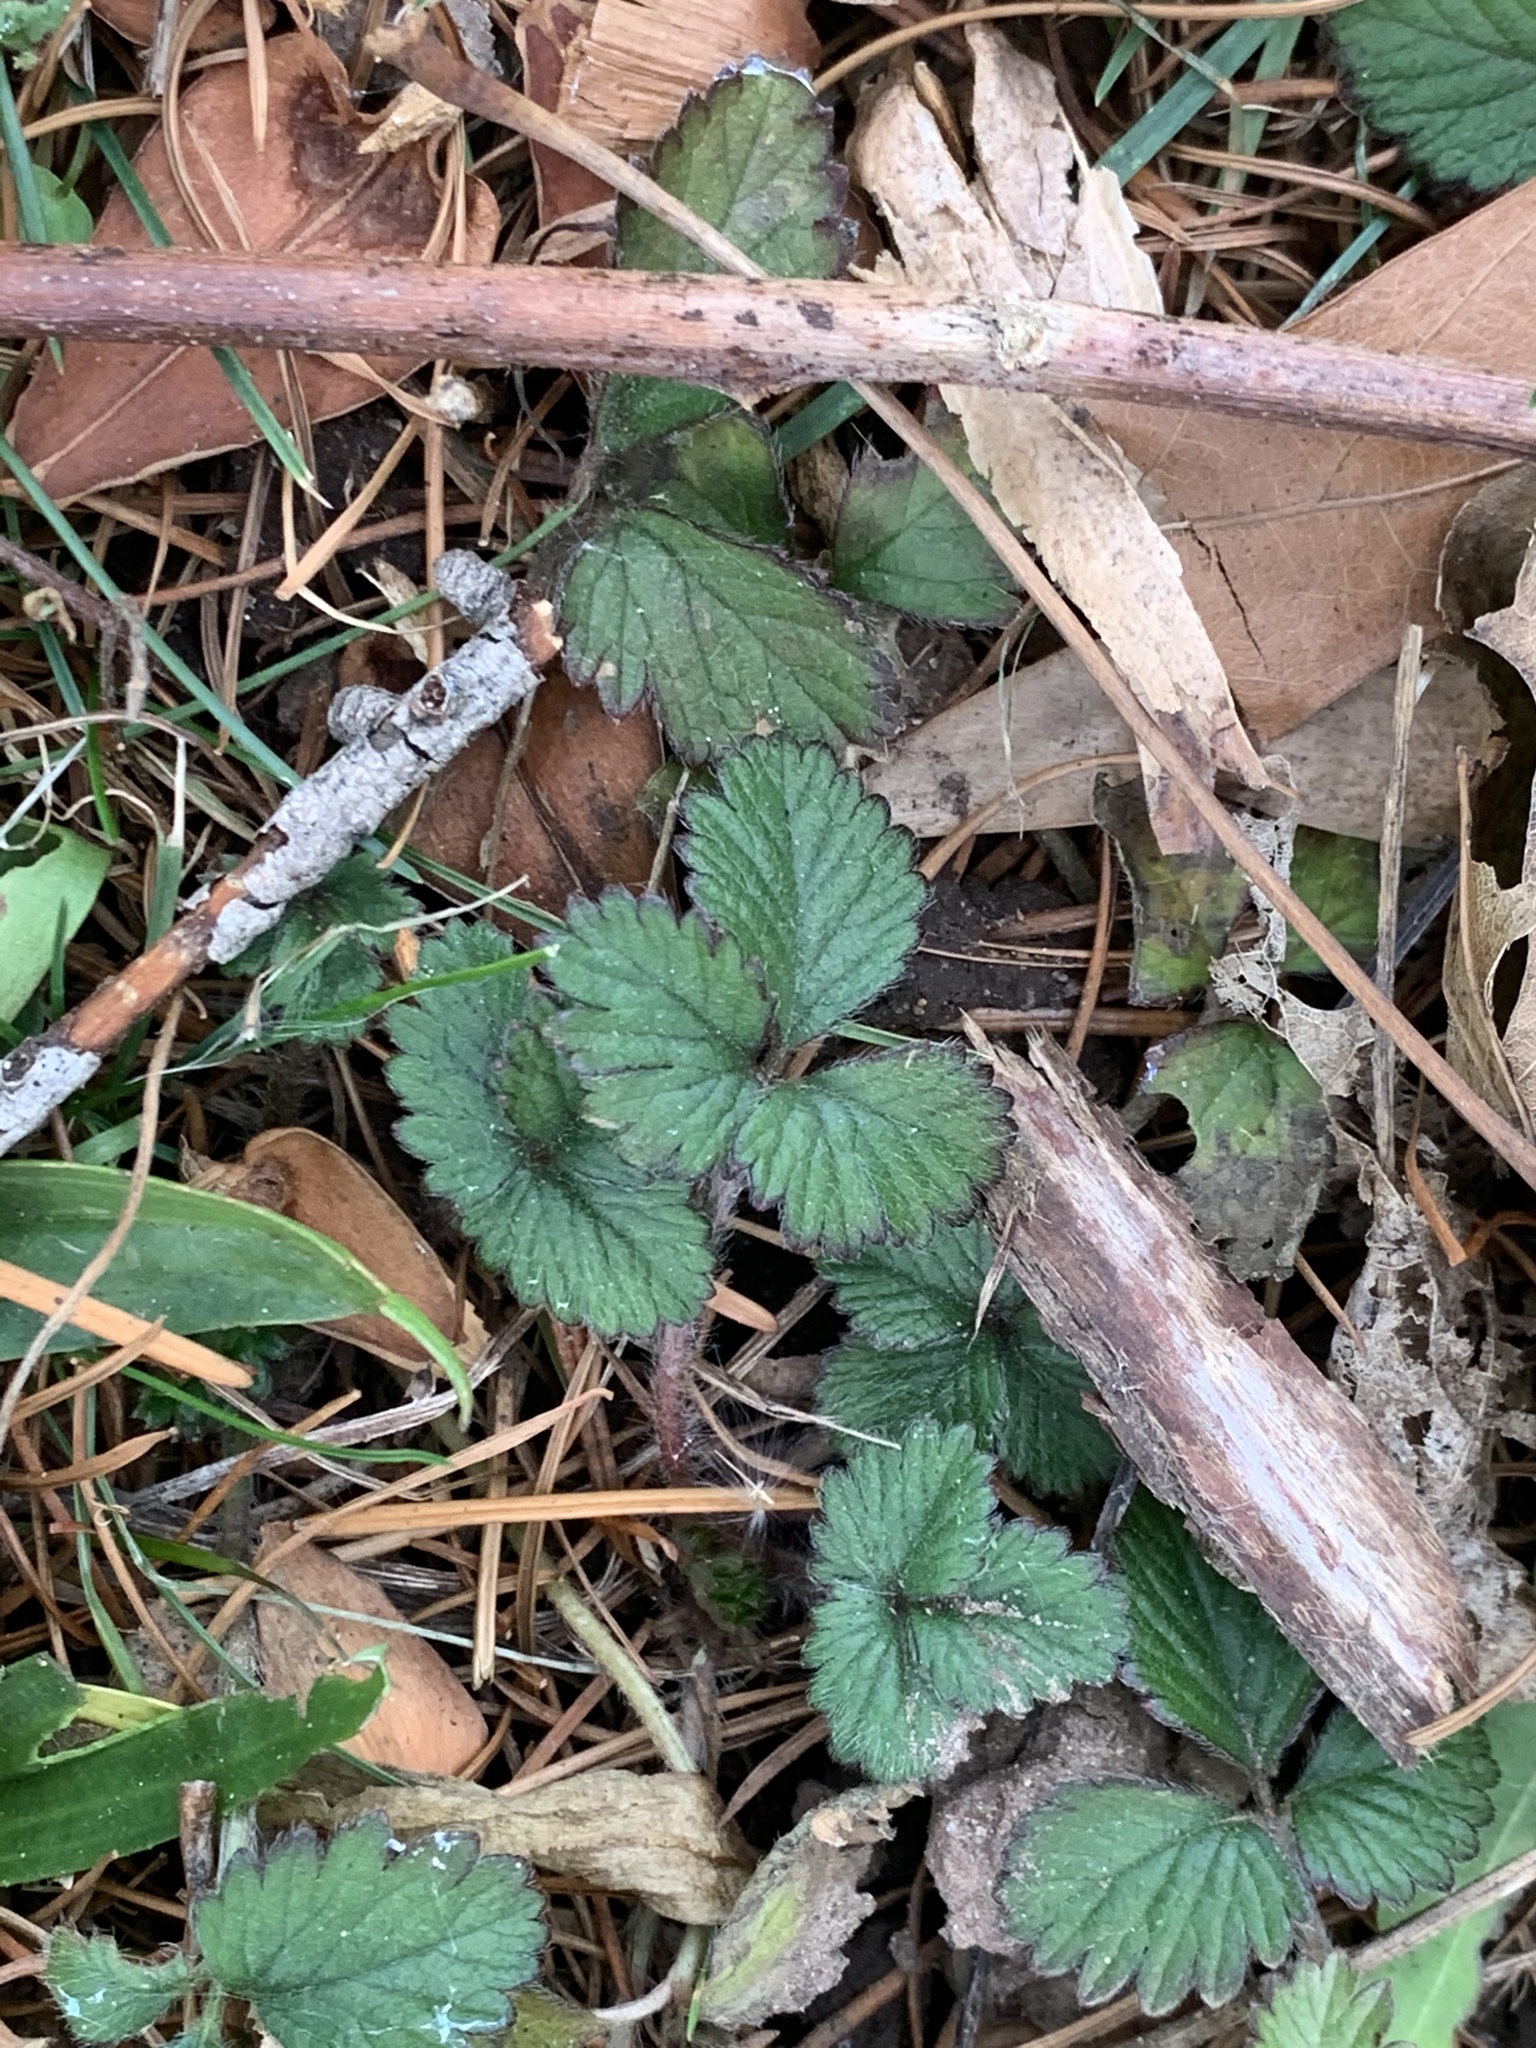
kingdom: Plantae
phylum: Tracheophyta
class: Magnoliopsida
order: Rosales
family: Rosaceae
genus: Potentilla
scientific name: Potentilla indica
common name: Yellow-flowered strawberry
